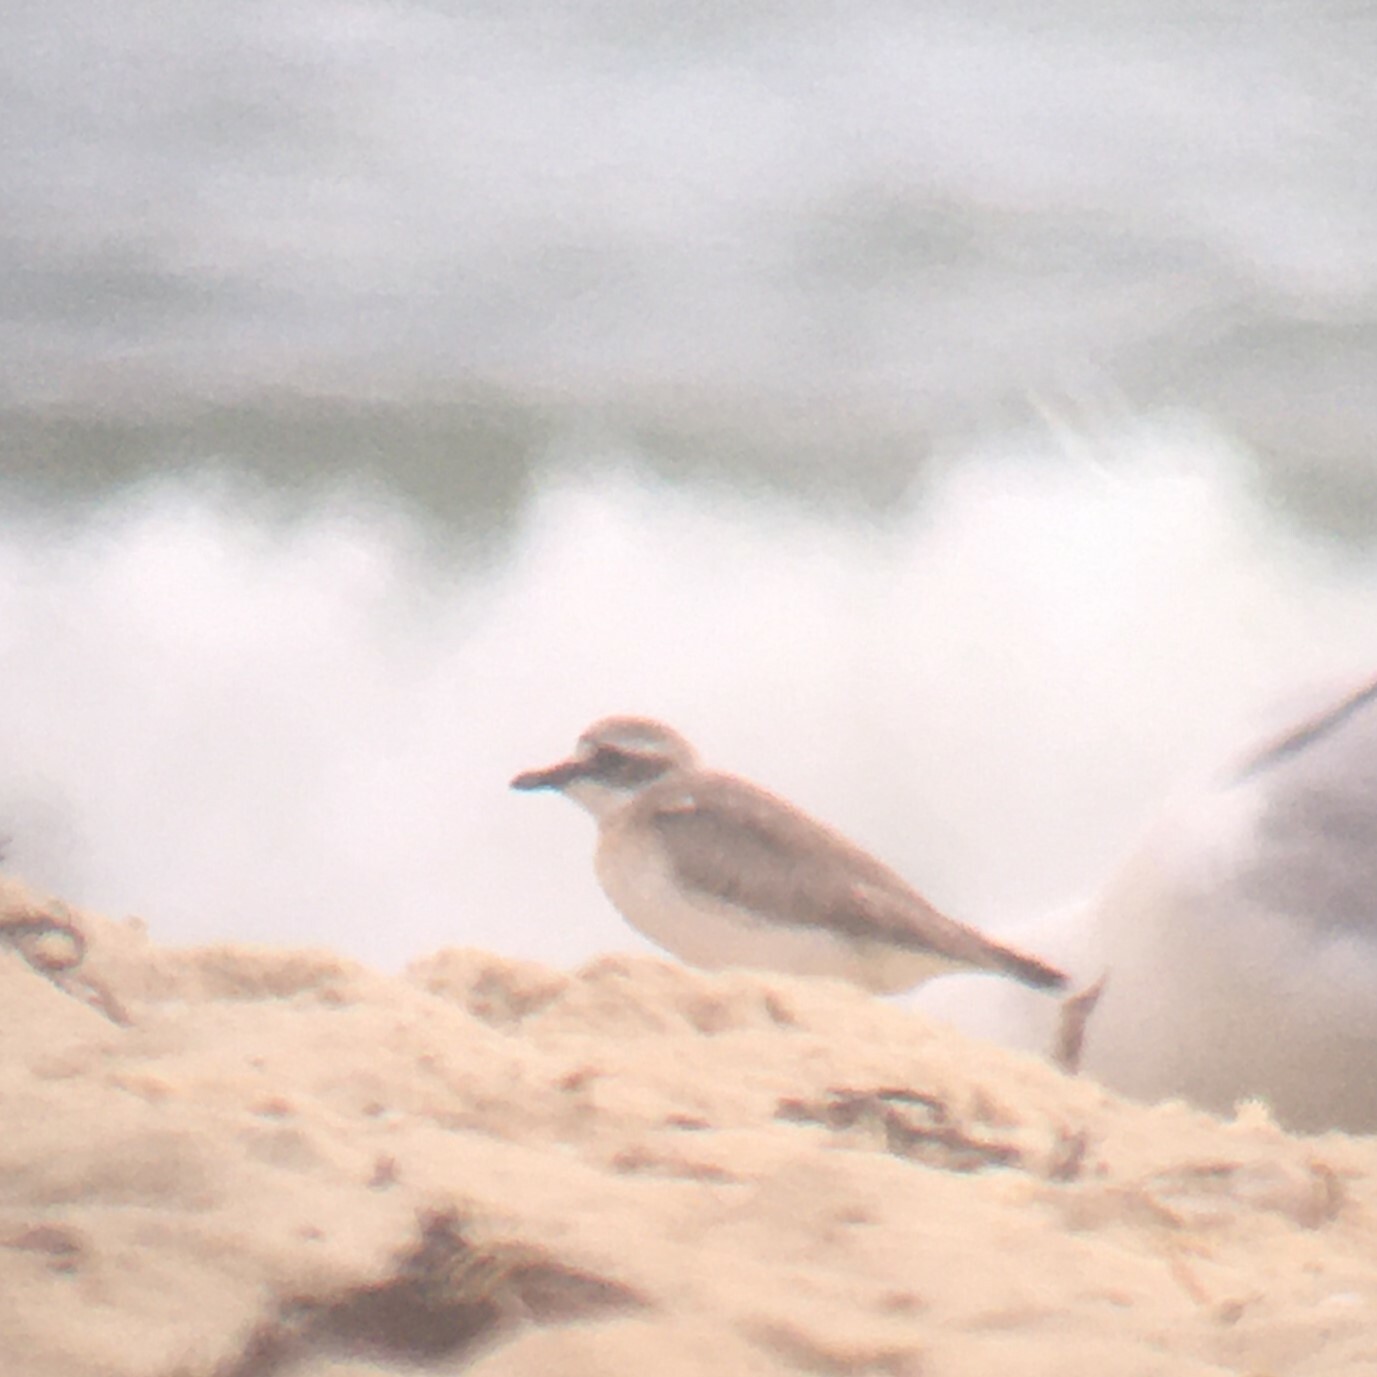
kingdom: Animalia
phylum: Chordata
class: Aves
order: Charadriiformes
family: Charadriidae
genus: Anarhynchus
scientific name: Anarhynchus
